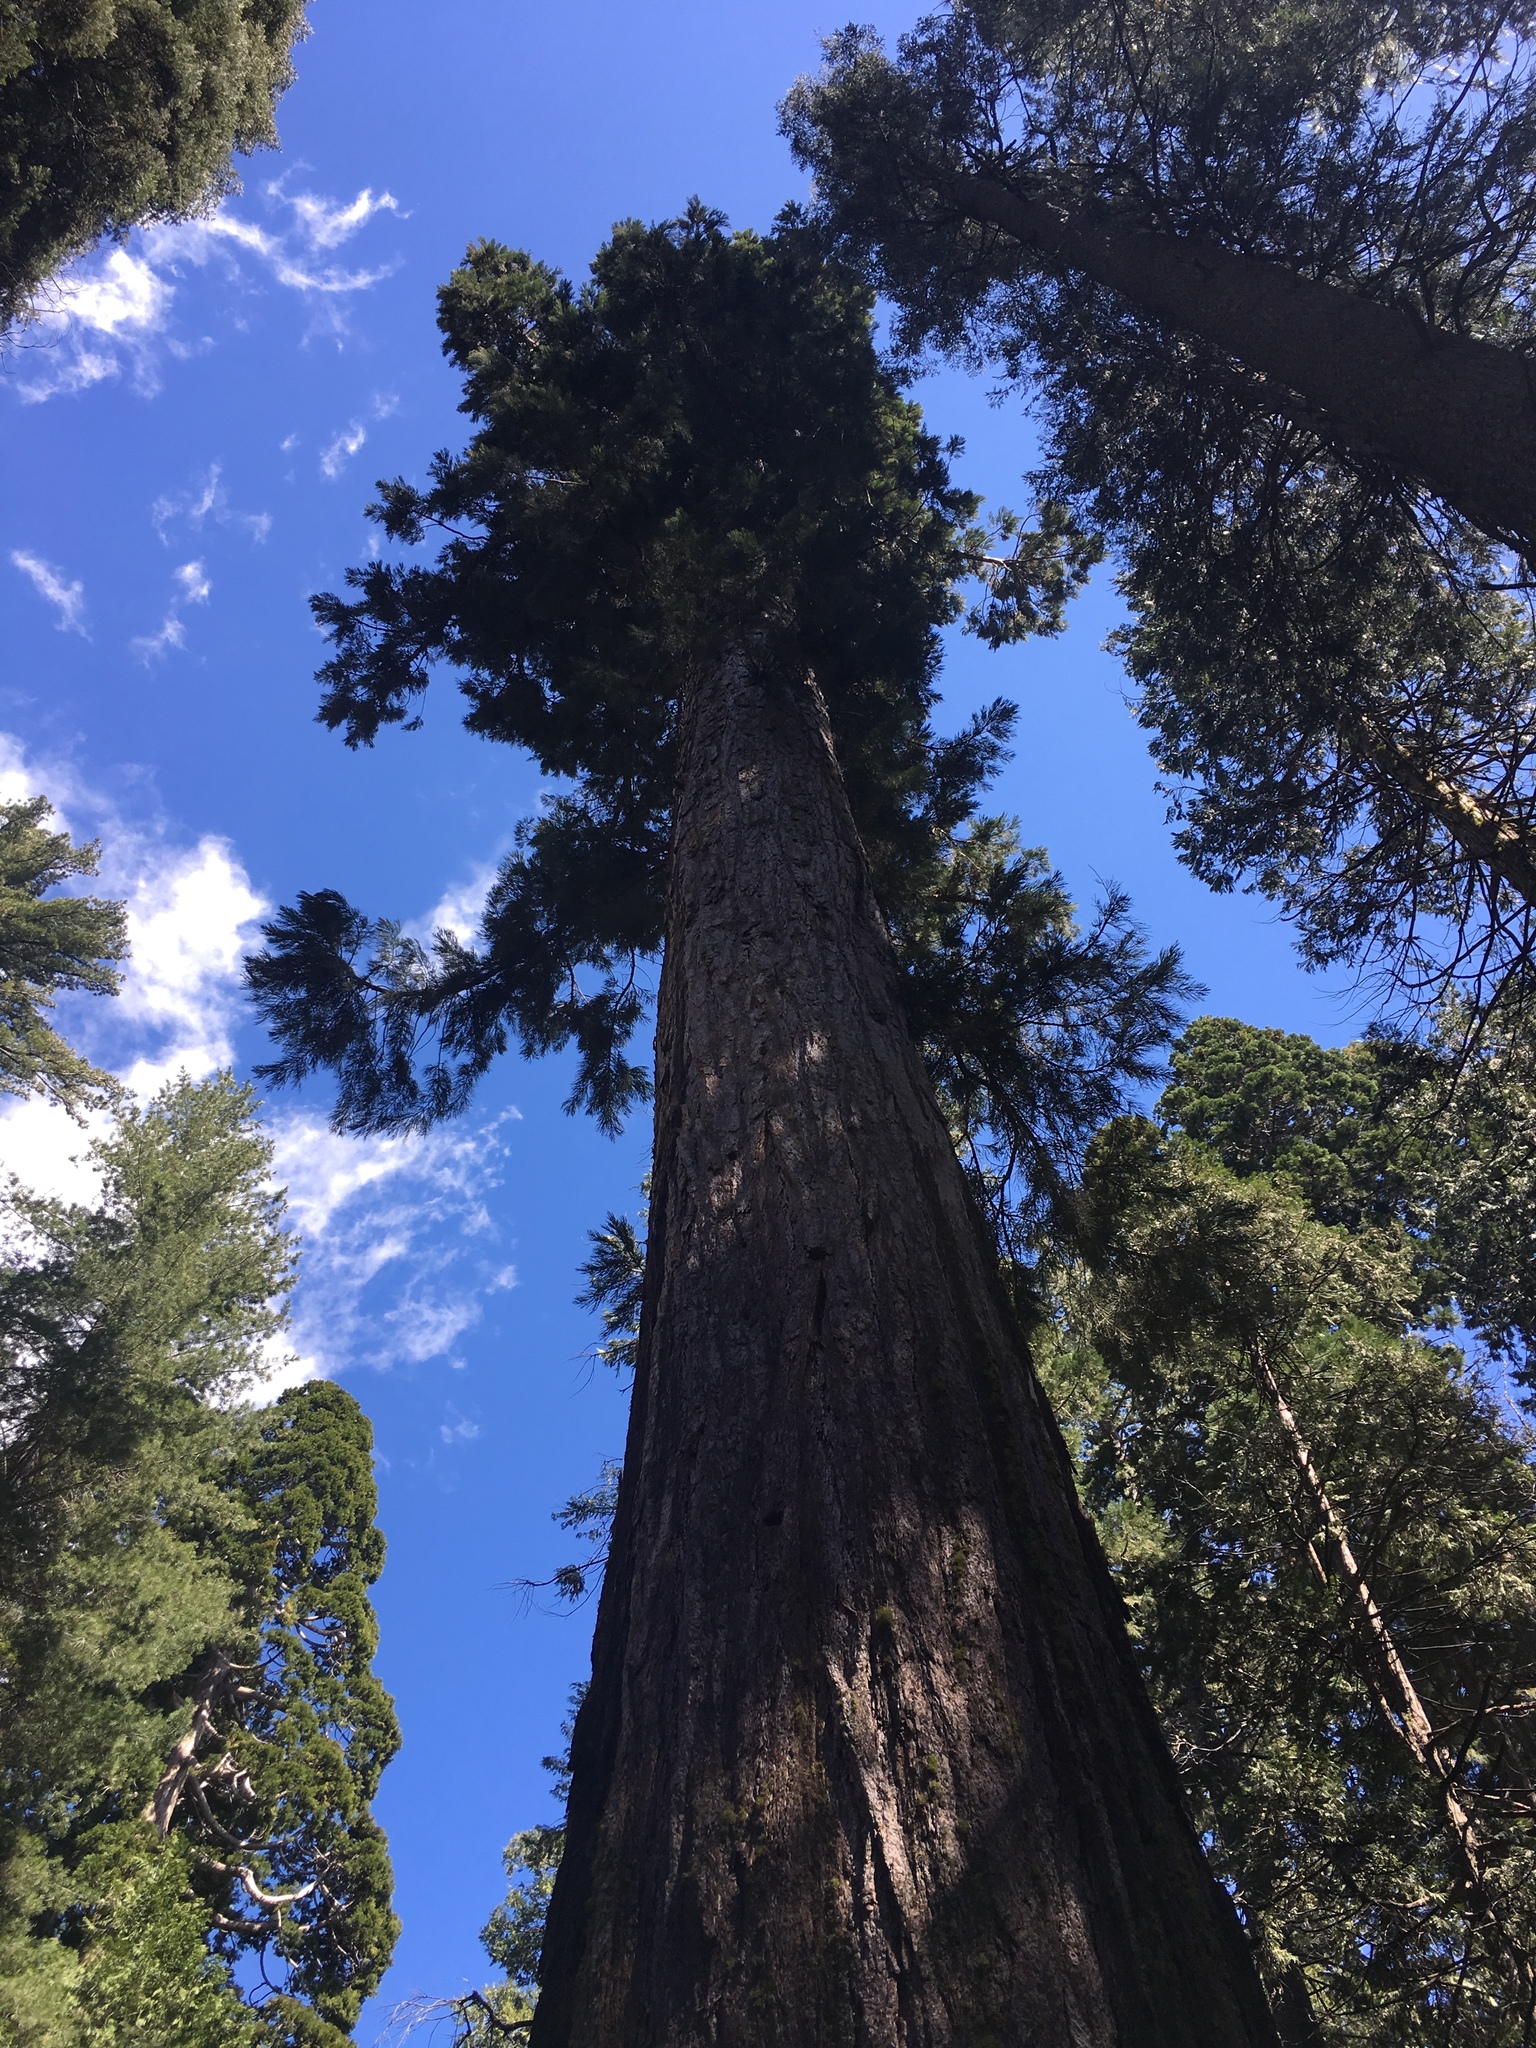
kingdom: Plantae
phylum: Tracheophyta
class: Pinopsida
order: Pinales
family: Cupressaceae
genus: Sequoiadendron
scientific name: Sequoiadendron giganteum
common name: Wellingtonia
